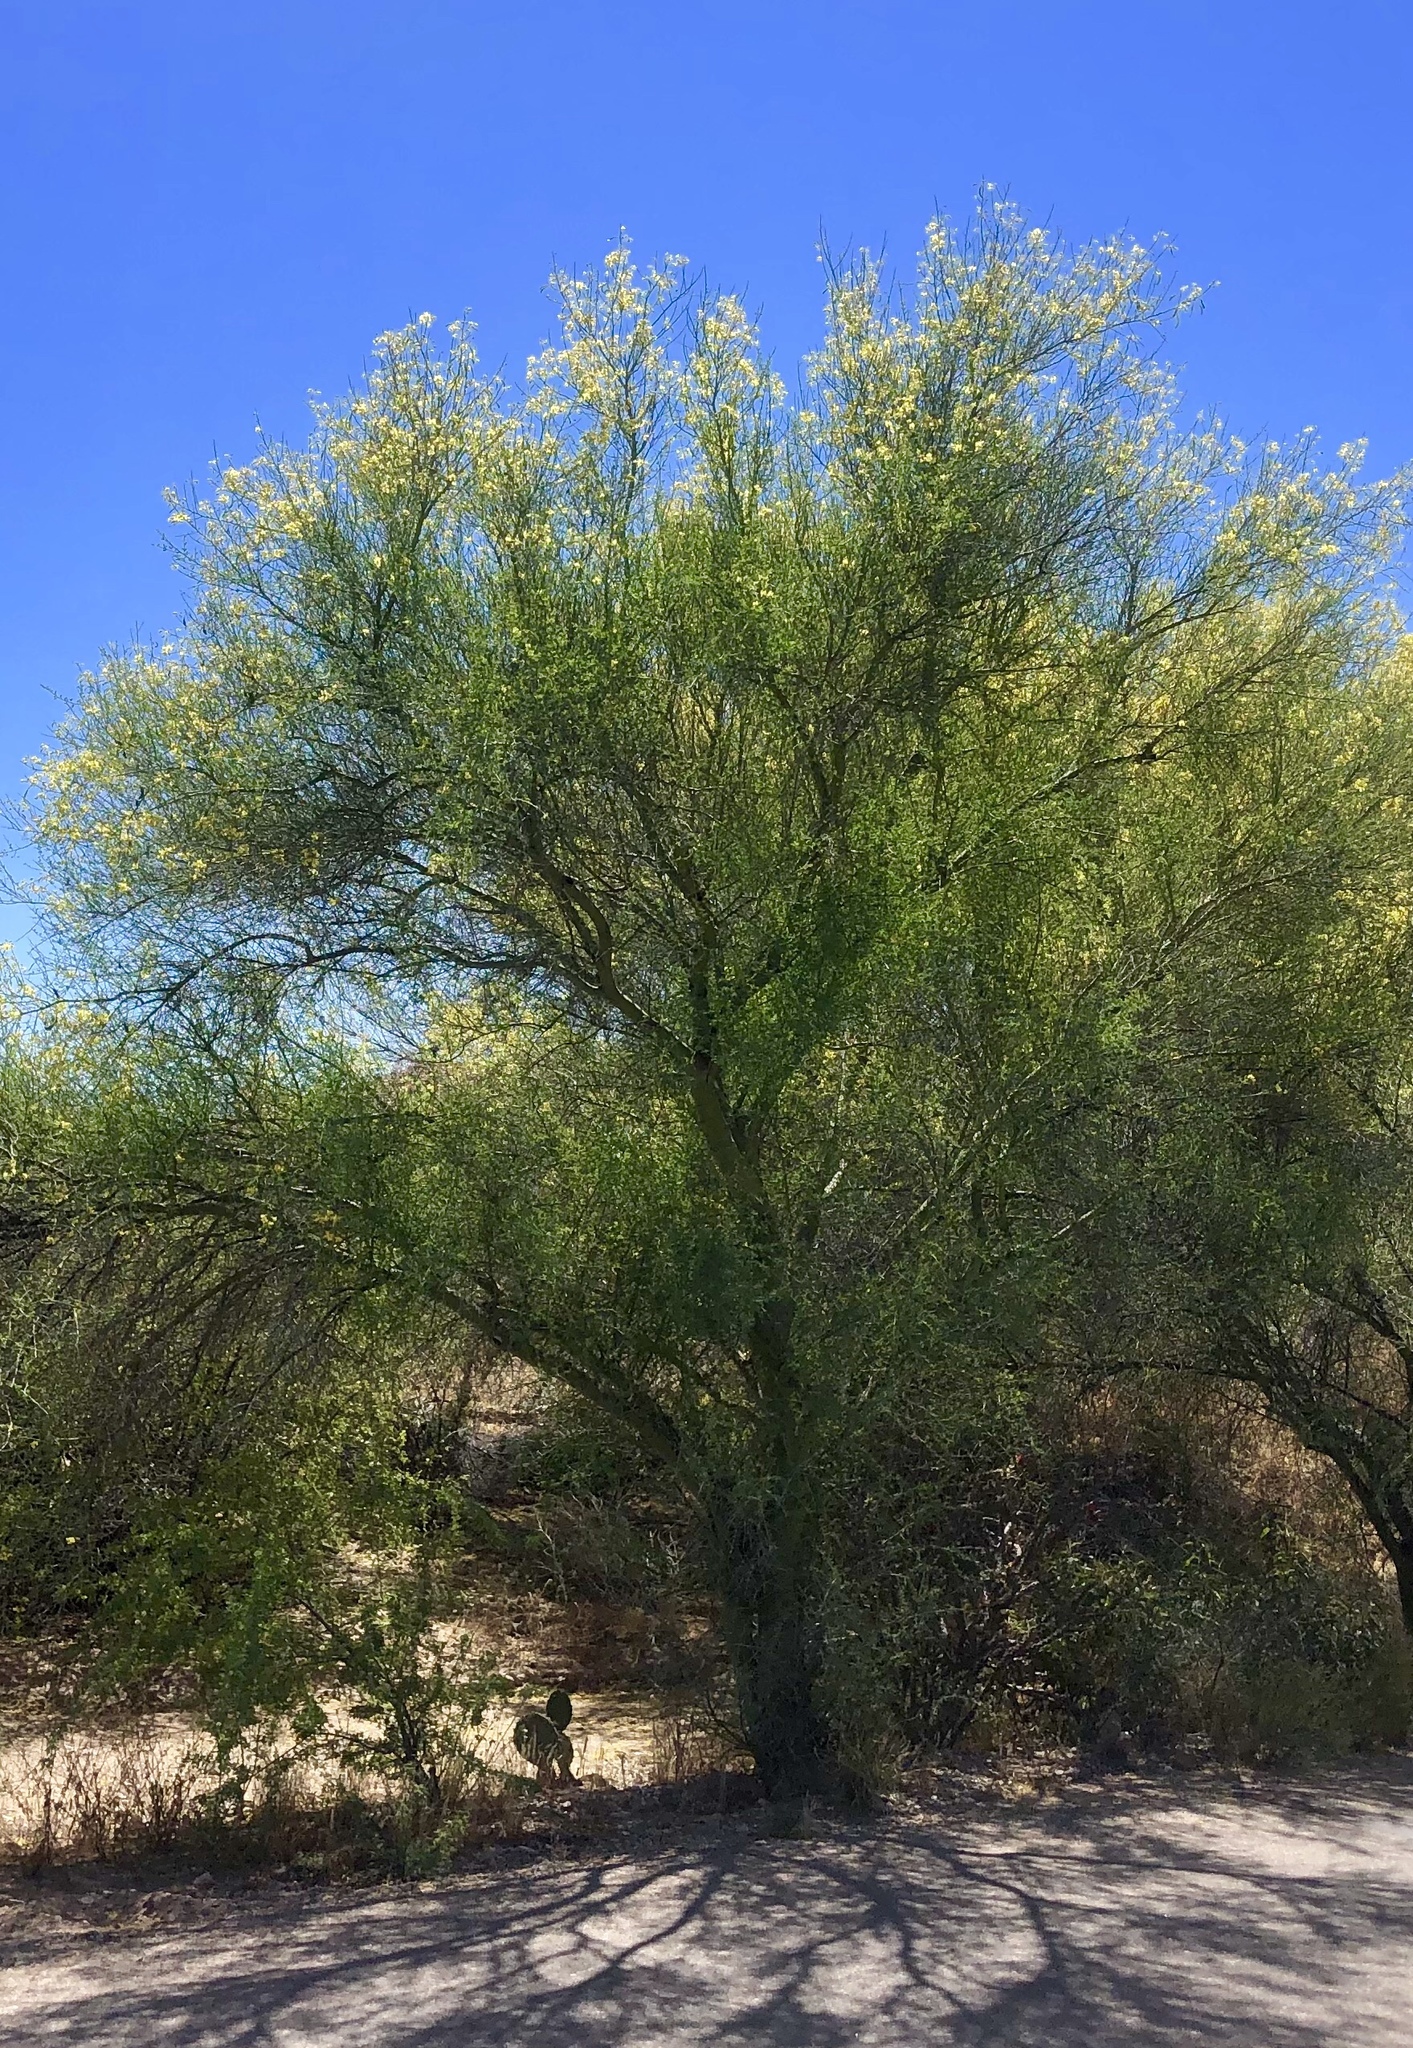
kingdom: Plantae
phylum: Tracheophyta
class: Magnoliopsida
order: Fabales
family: Fabaceae
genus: Parkinsonia
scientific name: Parkinsonia microphylla
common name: Yellow paloverde
